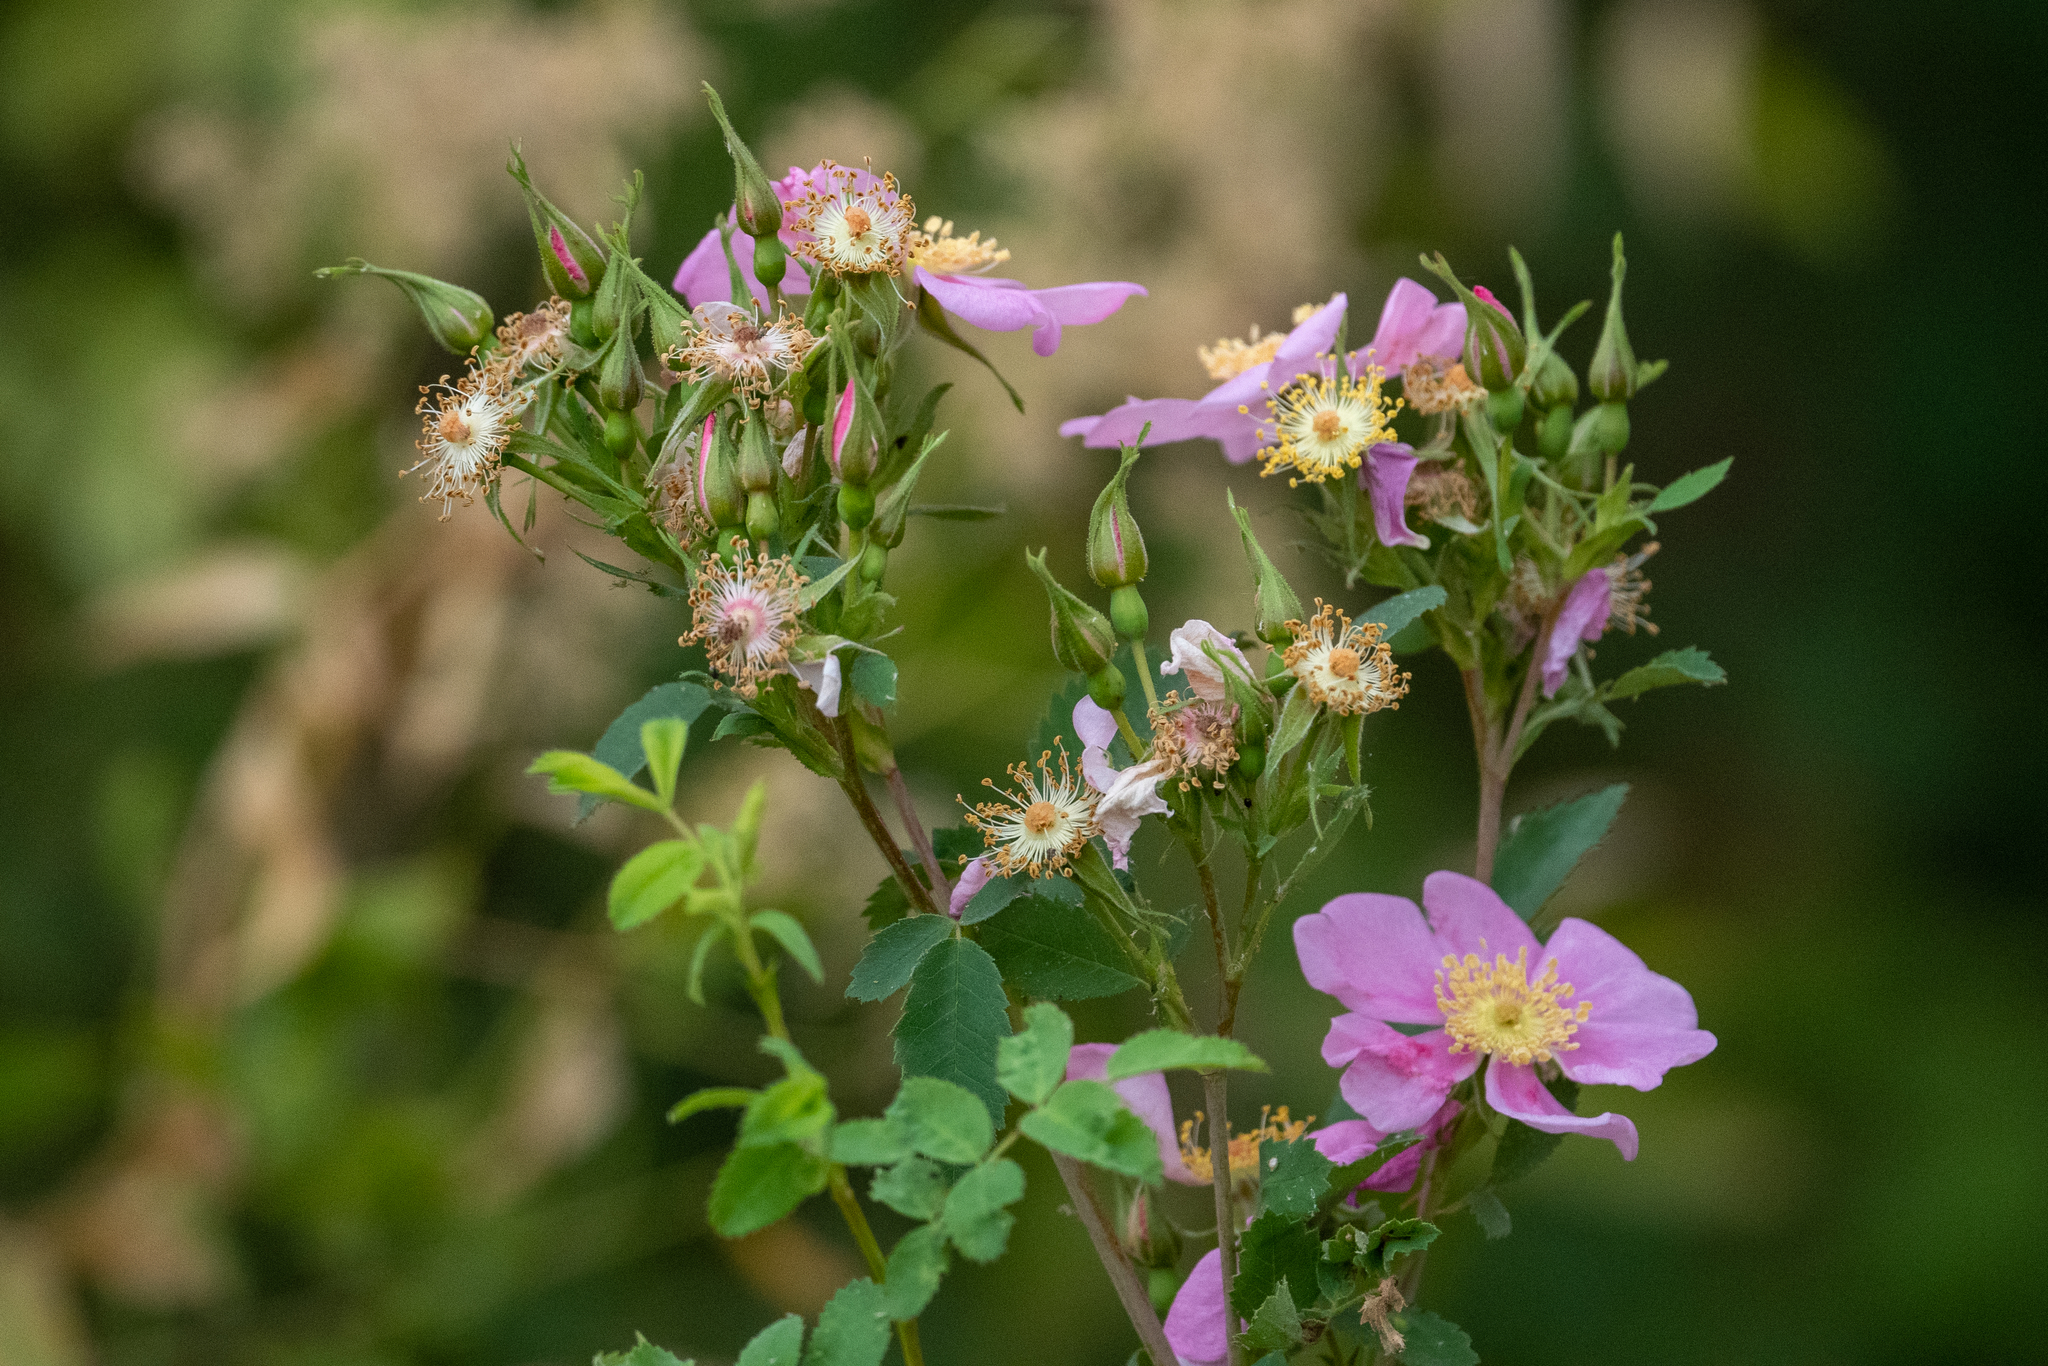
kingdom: Plantae
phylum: Tracheophyta
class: Magnoliopsida
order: Rosales
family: Rosaceae
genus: Rosa
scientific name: Rosa californica
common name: California rose
